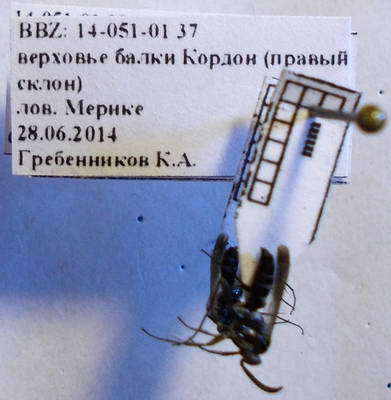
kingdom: Animalia
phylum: Arthropoda
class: Insecta
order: Hymenoptera
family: Pompilidae
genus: Amblyellus
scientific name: Amblyellus hasdrubal
